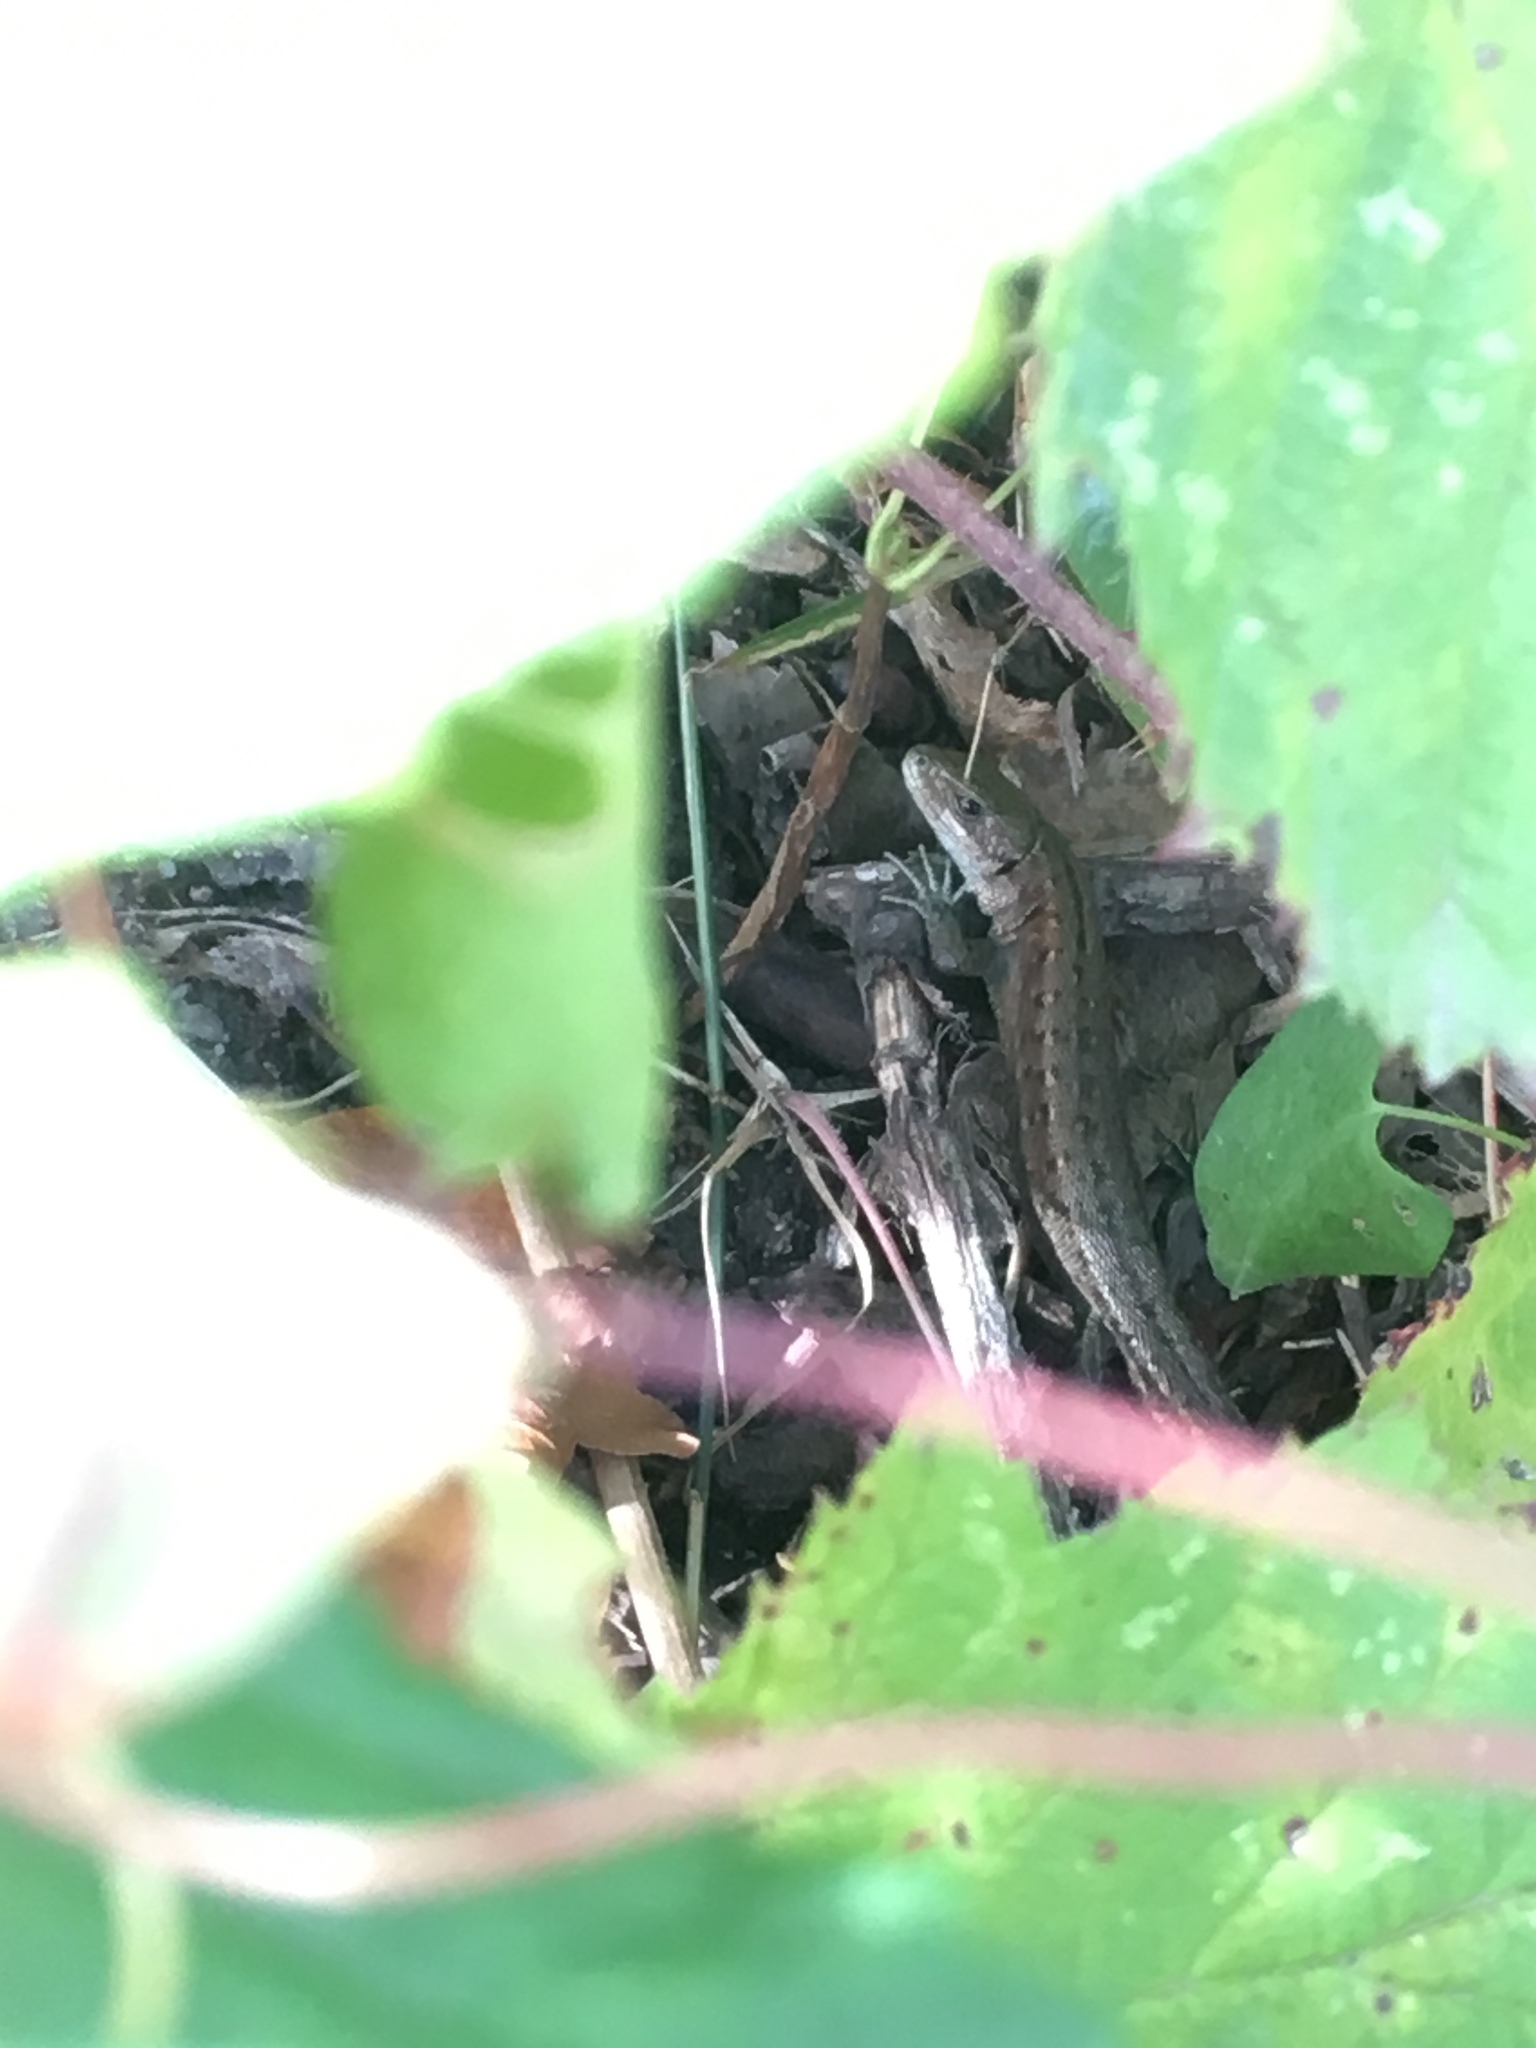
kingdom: Animalia
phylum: Chordata
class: Squamata
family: Lacertidae
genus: Zootoca
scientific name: Zootoca vivipara
